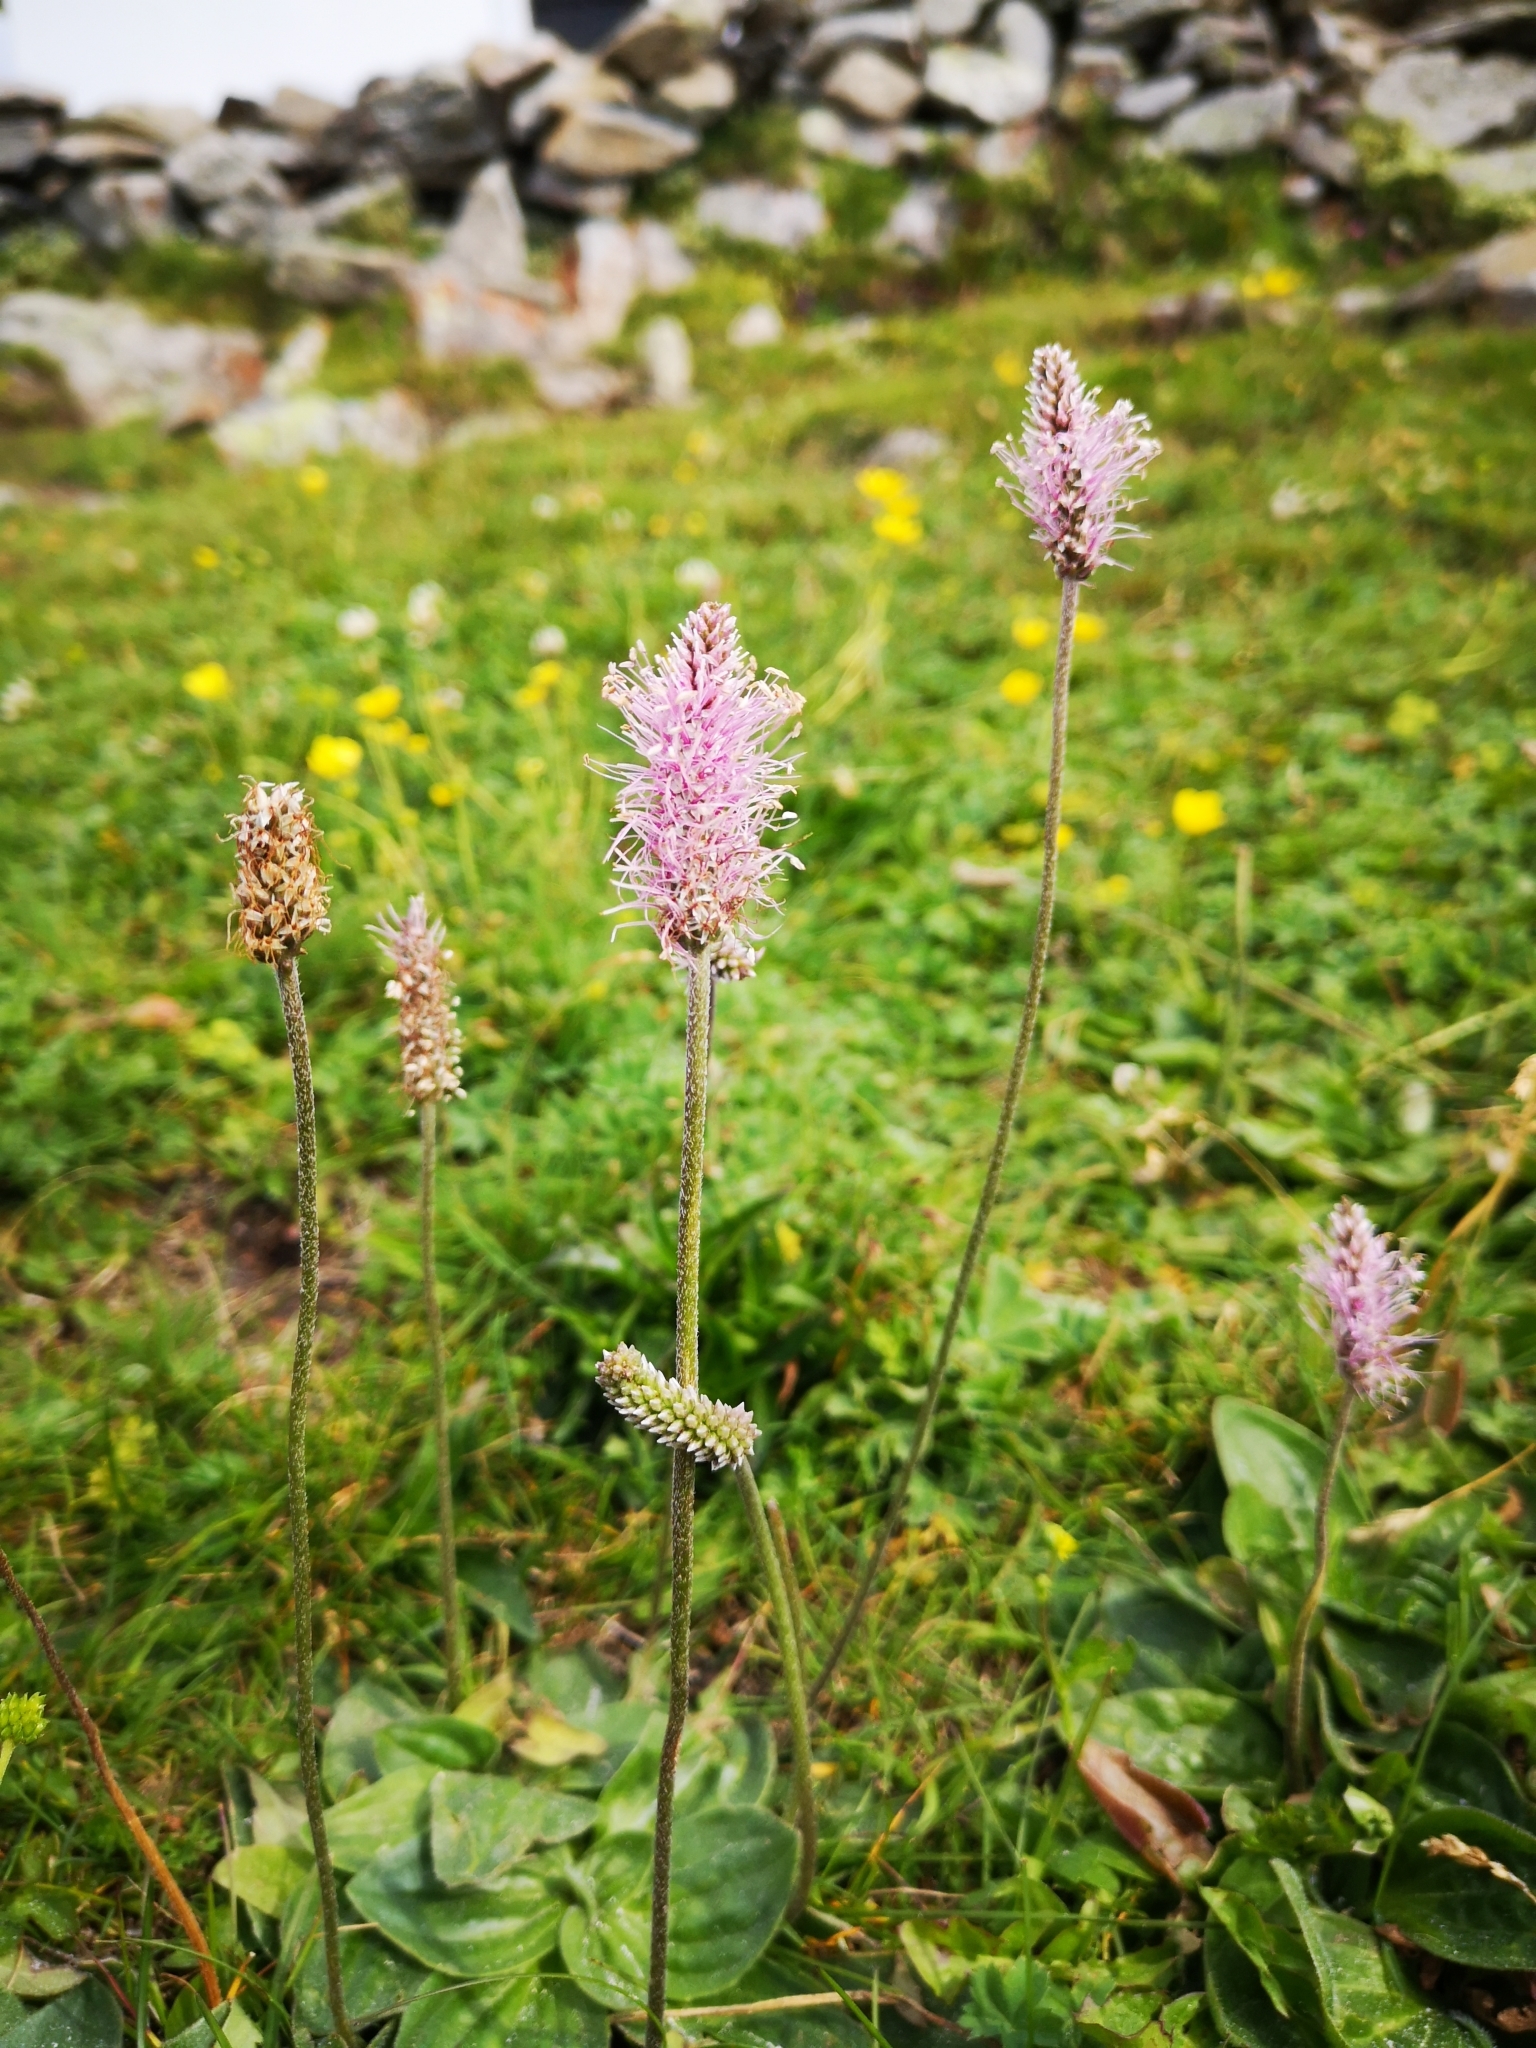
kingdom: Plantae
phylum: Tracheophyta
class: Magnoliopsida
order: Lamiales
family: Plantaginaceae
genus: Plantago
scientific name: Plantago media
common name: Hoary plantain
